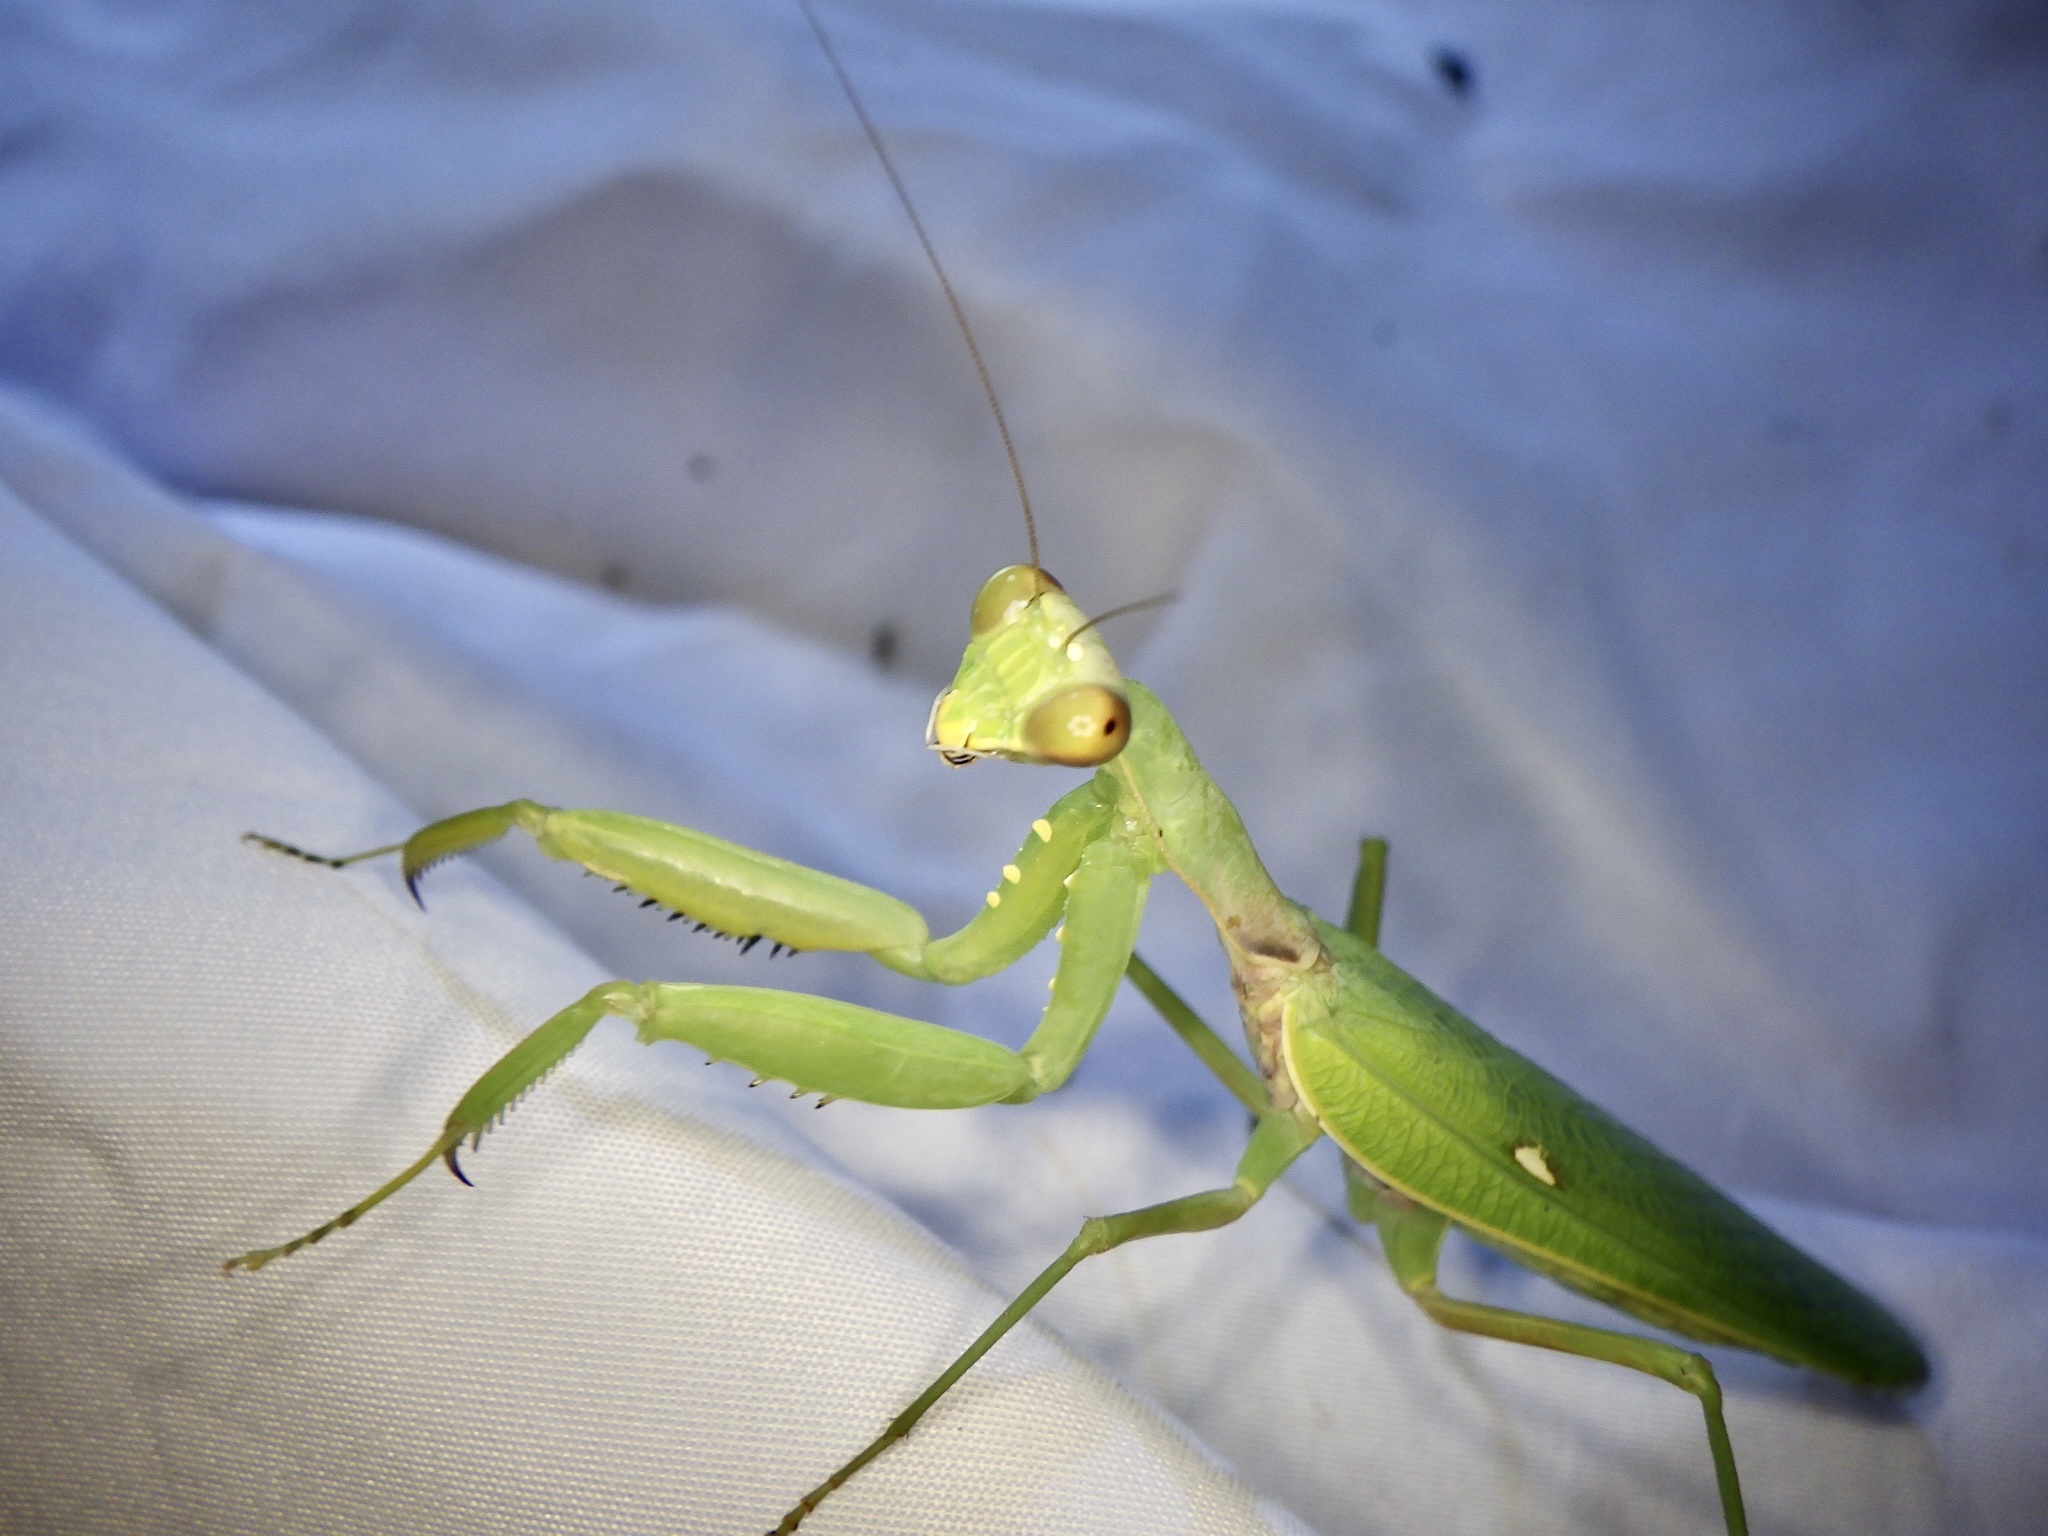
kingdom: Animalia
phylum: Arthropoda
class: Insecta
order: Mantodea
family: Mantidae
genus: Hierodula
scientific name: Hierodula patellifera
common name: Asian mantis
